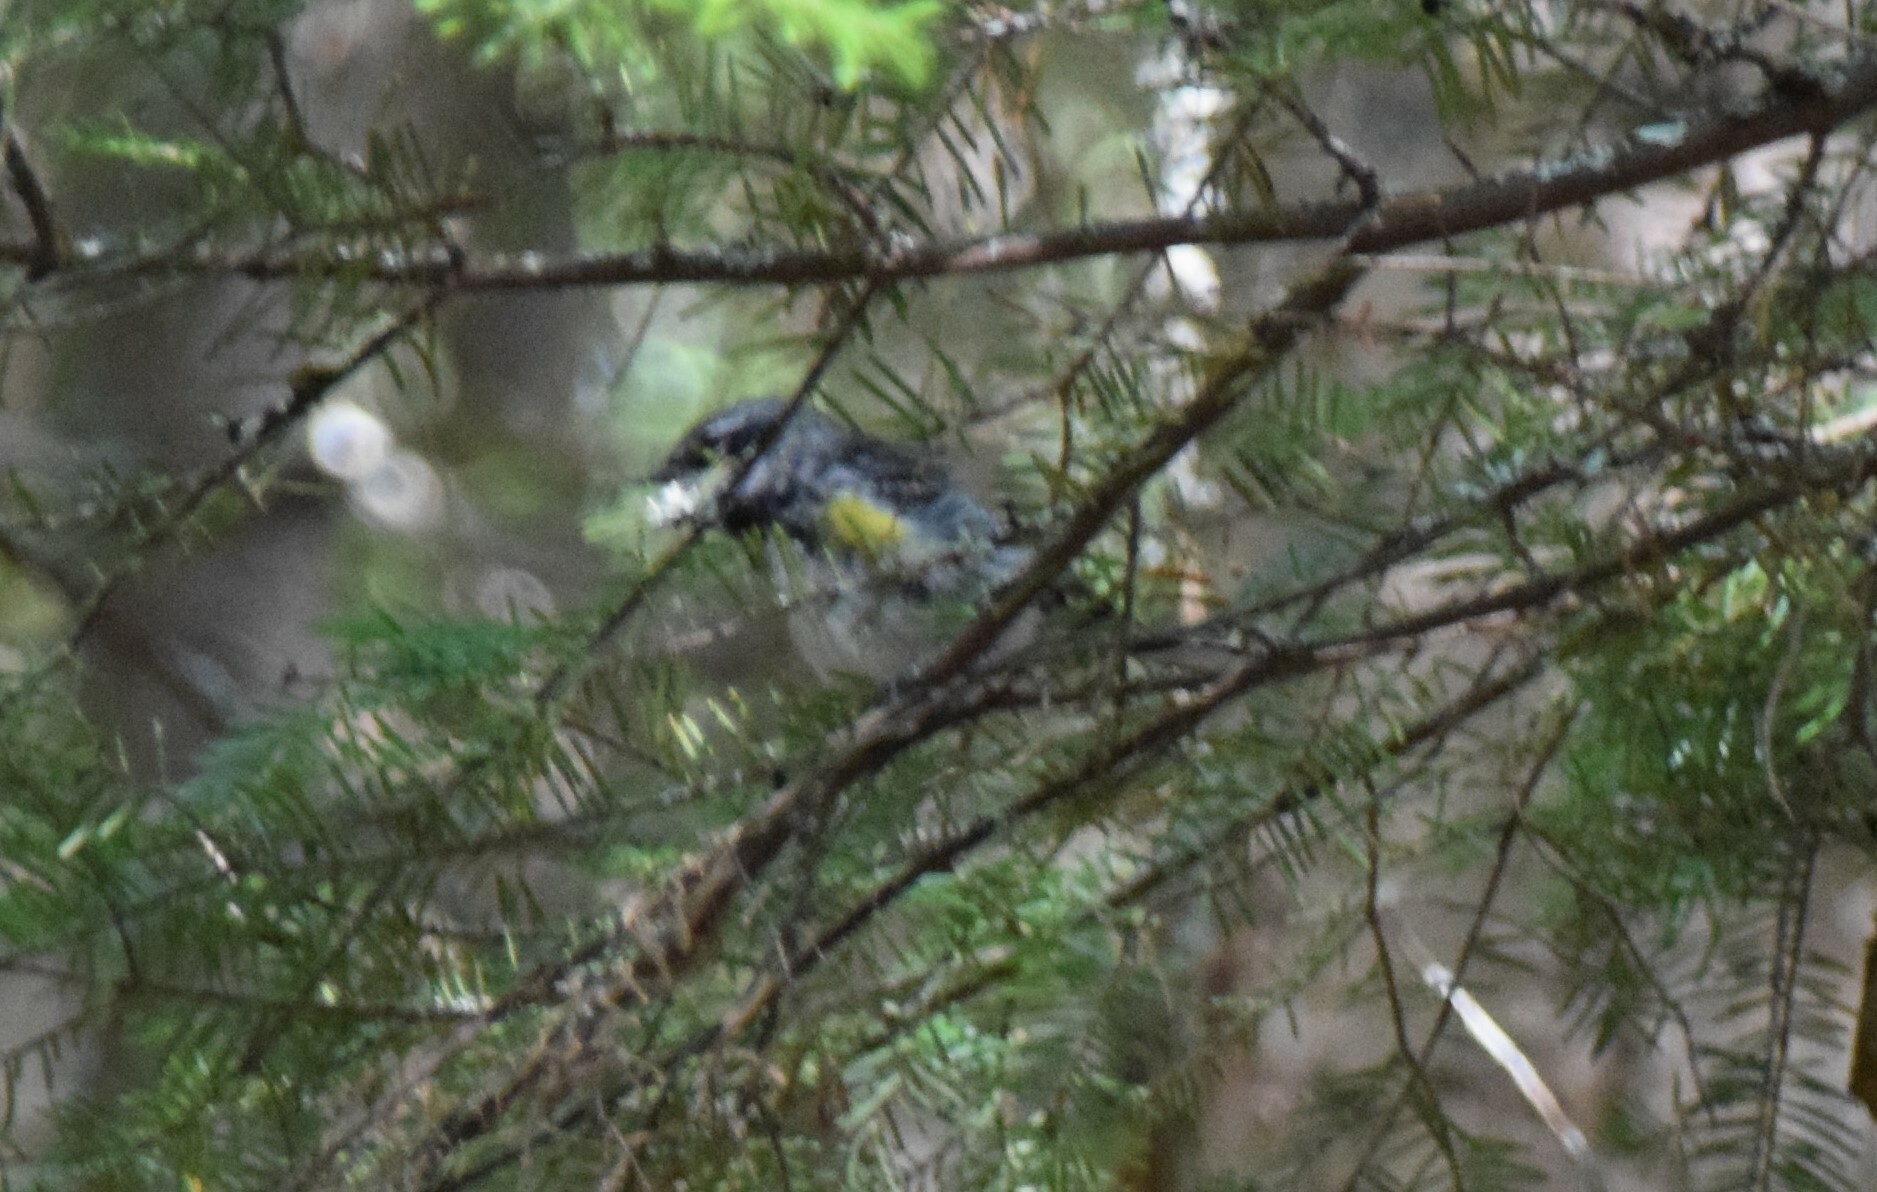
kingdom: Animalia
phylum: Chordata
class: Aves
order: Passeriformes
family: Parulidae
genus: Setophaga
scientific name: Setophaga coronata
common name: Myrtle warbler
